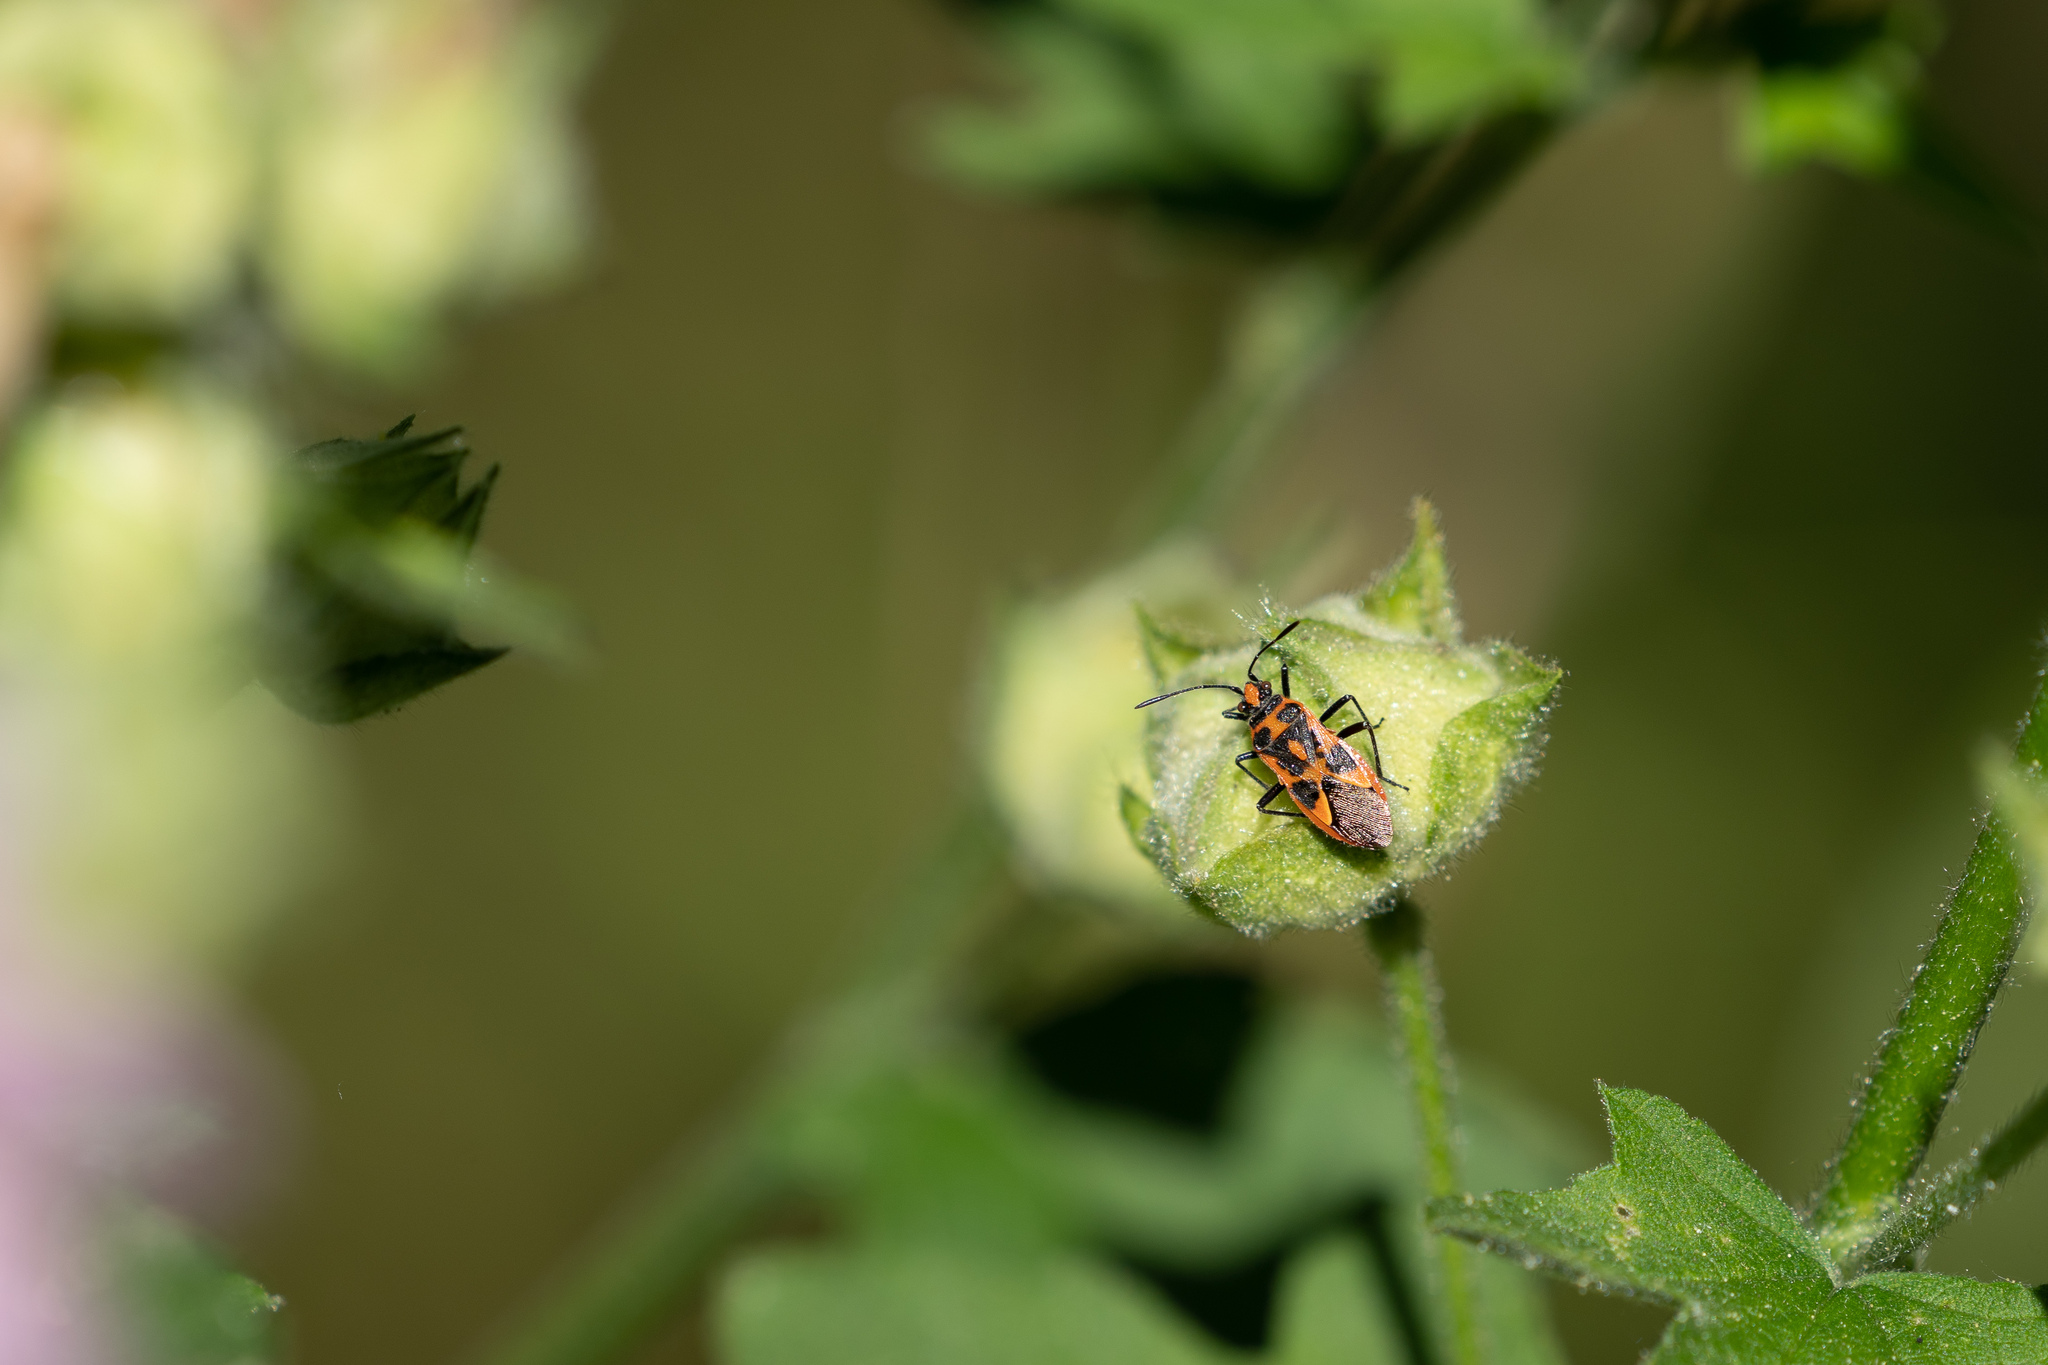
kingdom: Animalia
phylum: Arthropoda
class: Insecta
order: Hemiptera
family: Rhopalidae
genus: Corizus
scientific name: Corizus hyoscyami
